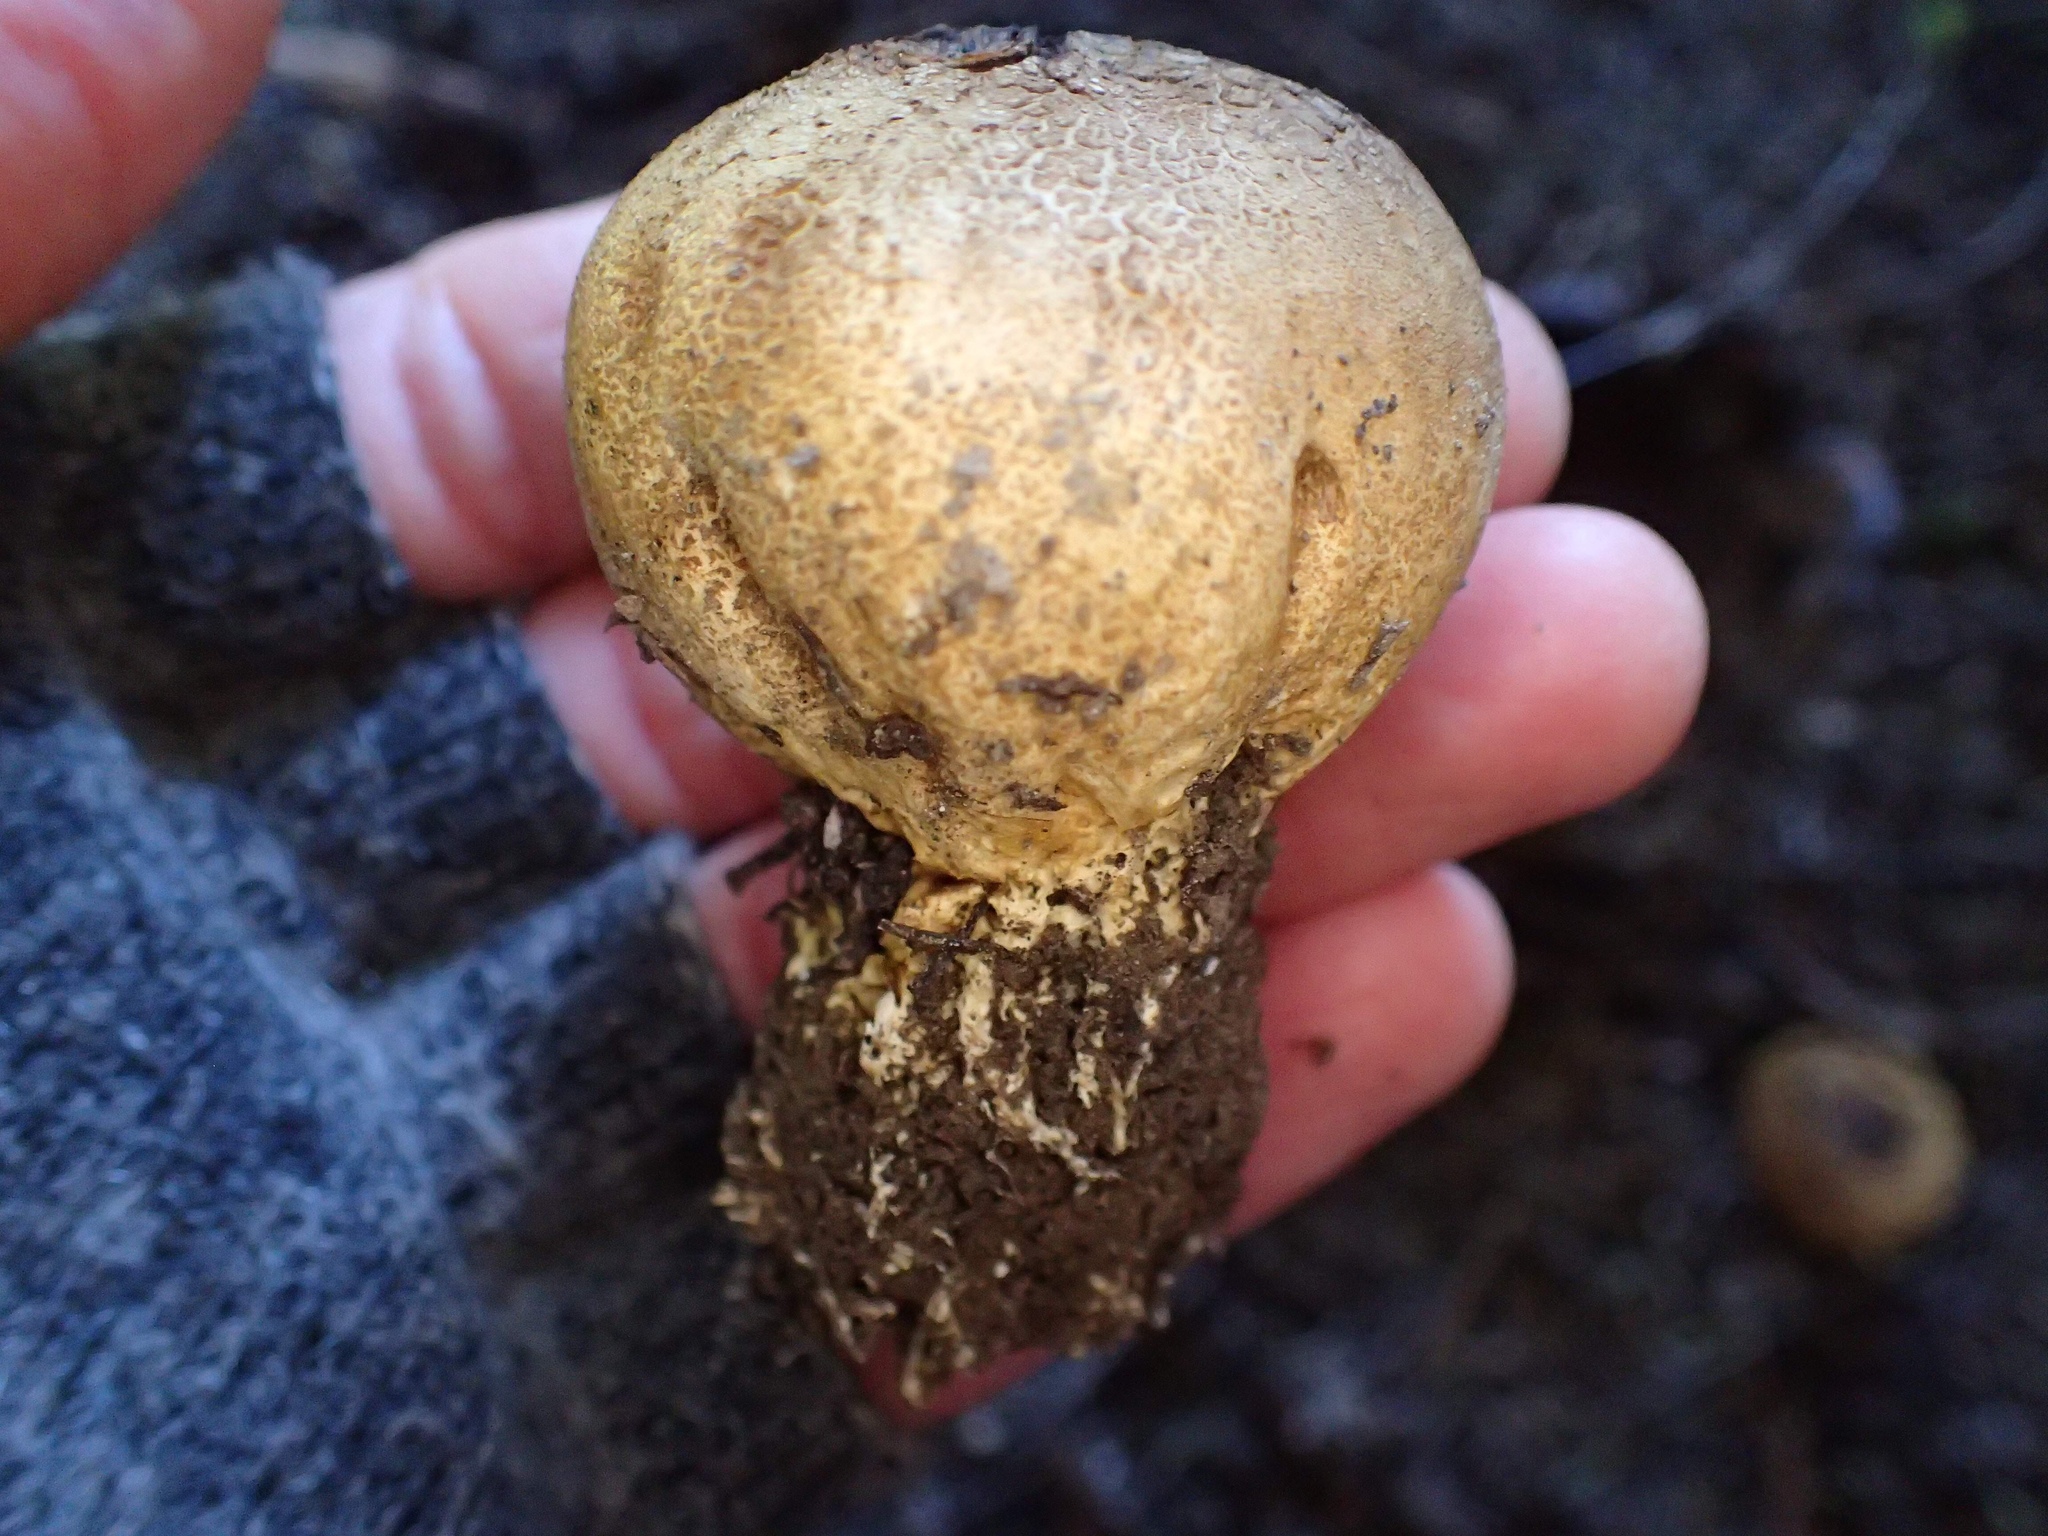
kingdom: Fungi
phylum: Basidiomycota
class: Agaricomycetes
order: Boletales
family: Sclerodermataceae
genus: Scleroderma
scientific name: Scleroderma
